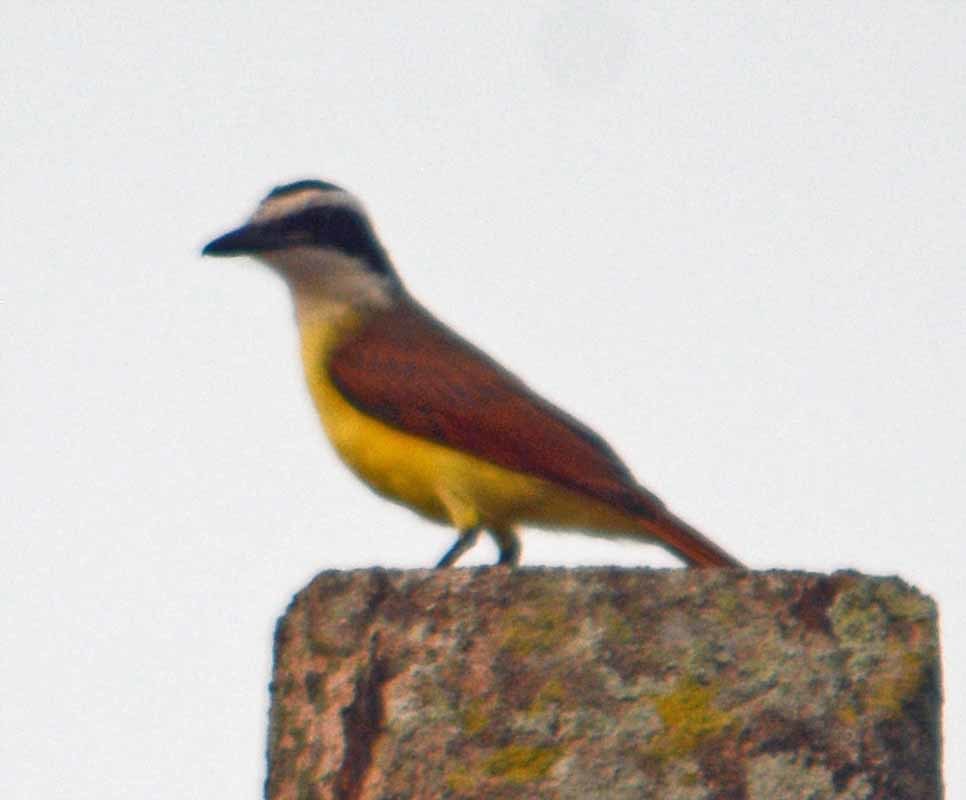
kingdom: Animalia
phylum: Chordata
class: Aves
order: Passeriformes
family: Tyrannidae
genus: Pitangus
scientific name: Pitangus sulphuratus
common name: Great kiskadee
